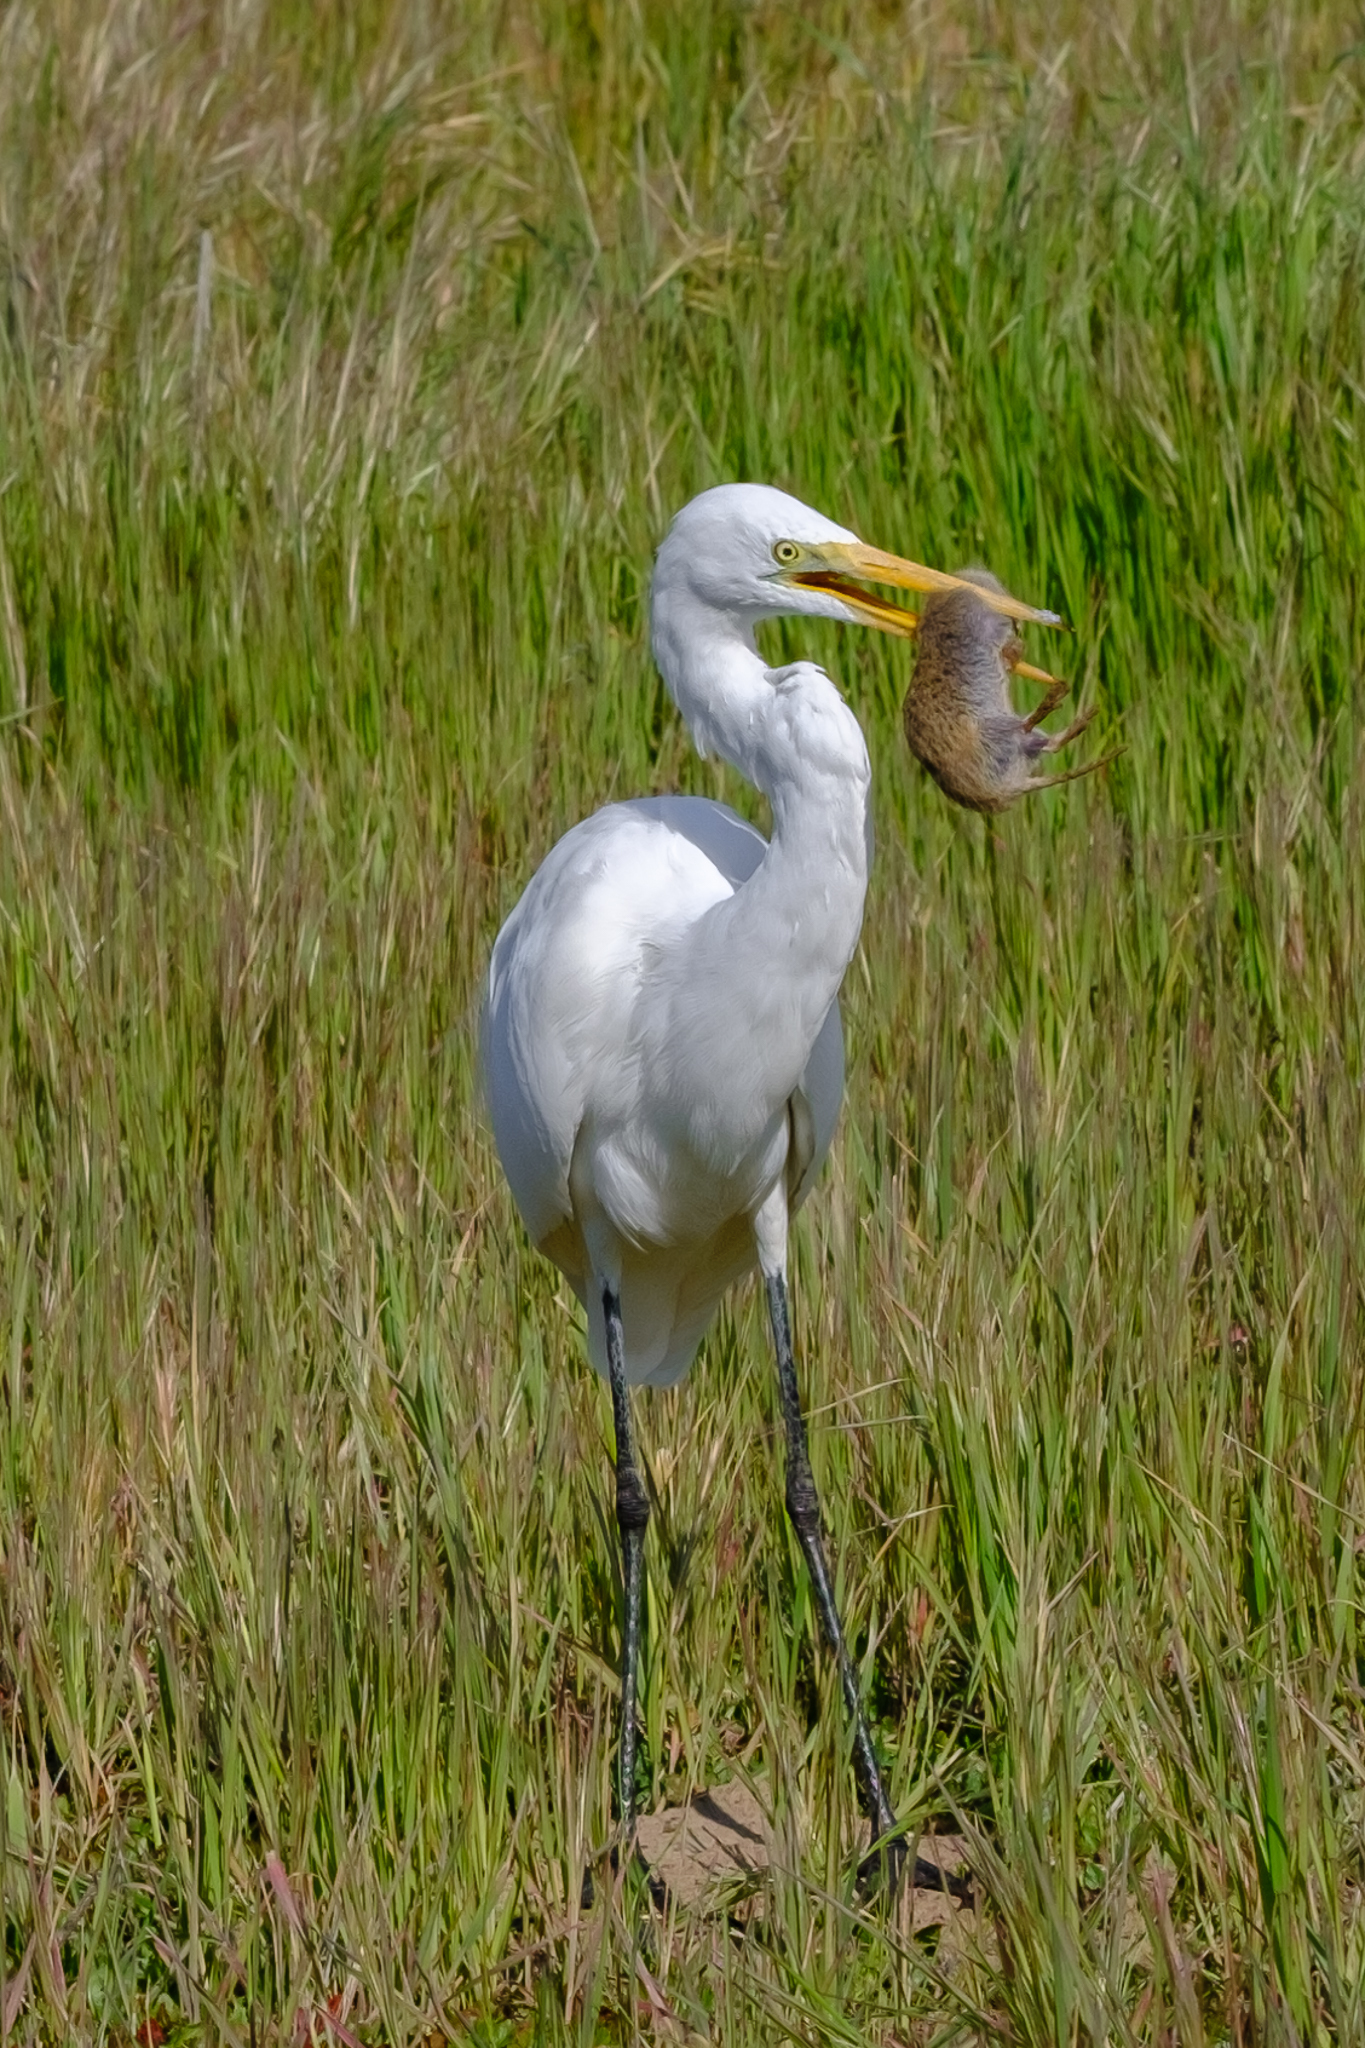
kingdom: Animalia
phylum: Chordata
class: Aves
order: Pelecaniformes
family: Ardeidae
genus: Ardea
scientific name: Ardea alba
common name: Great egret
